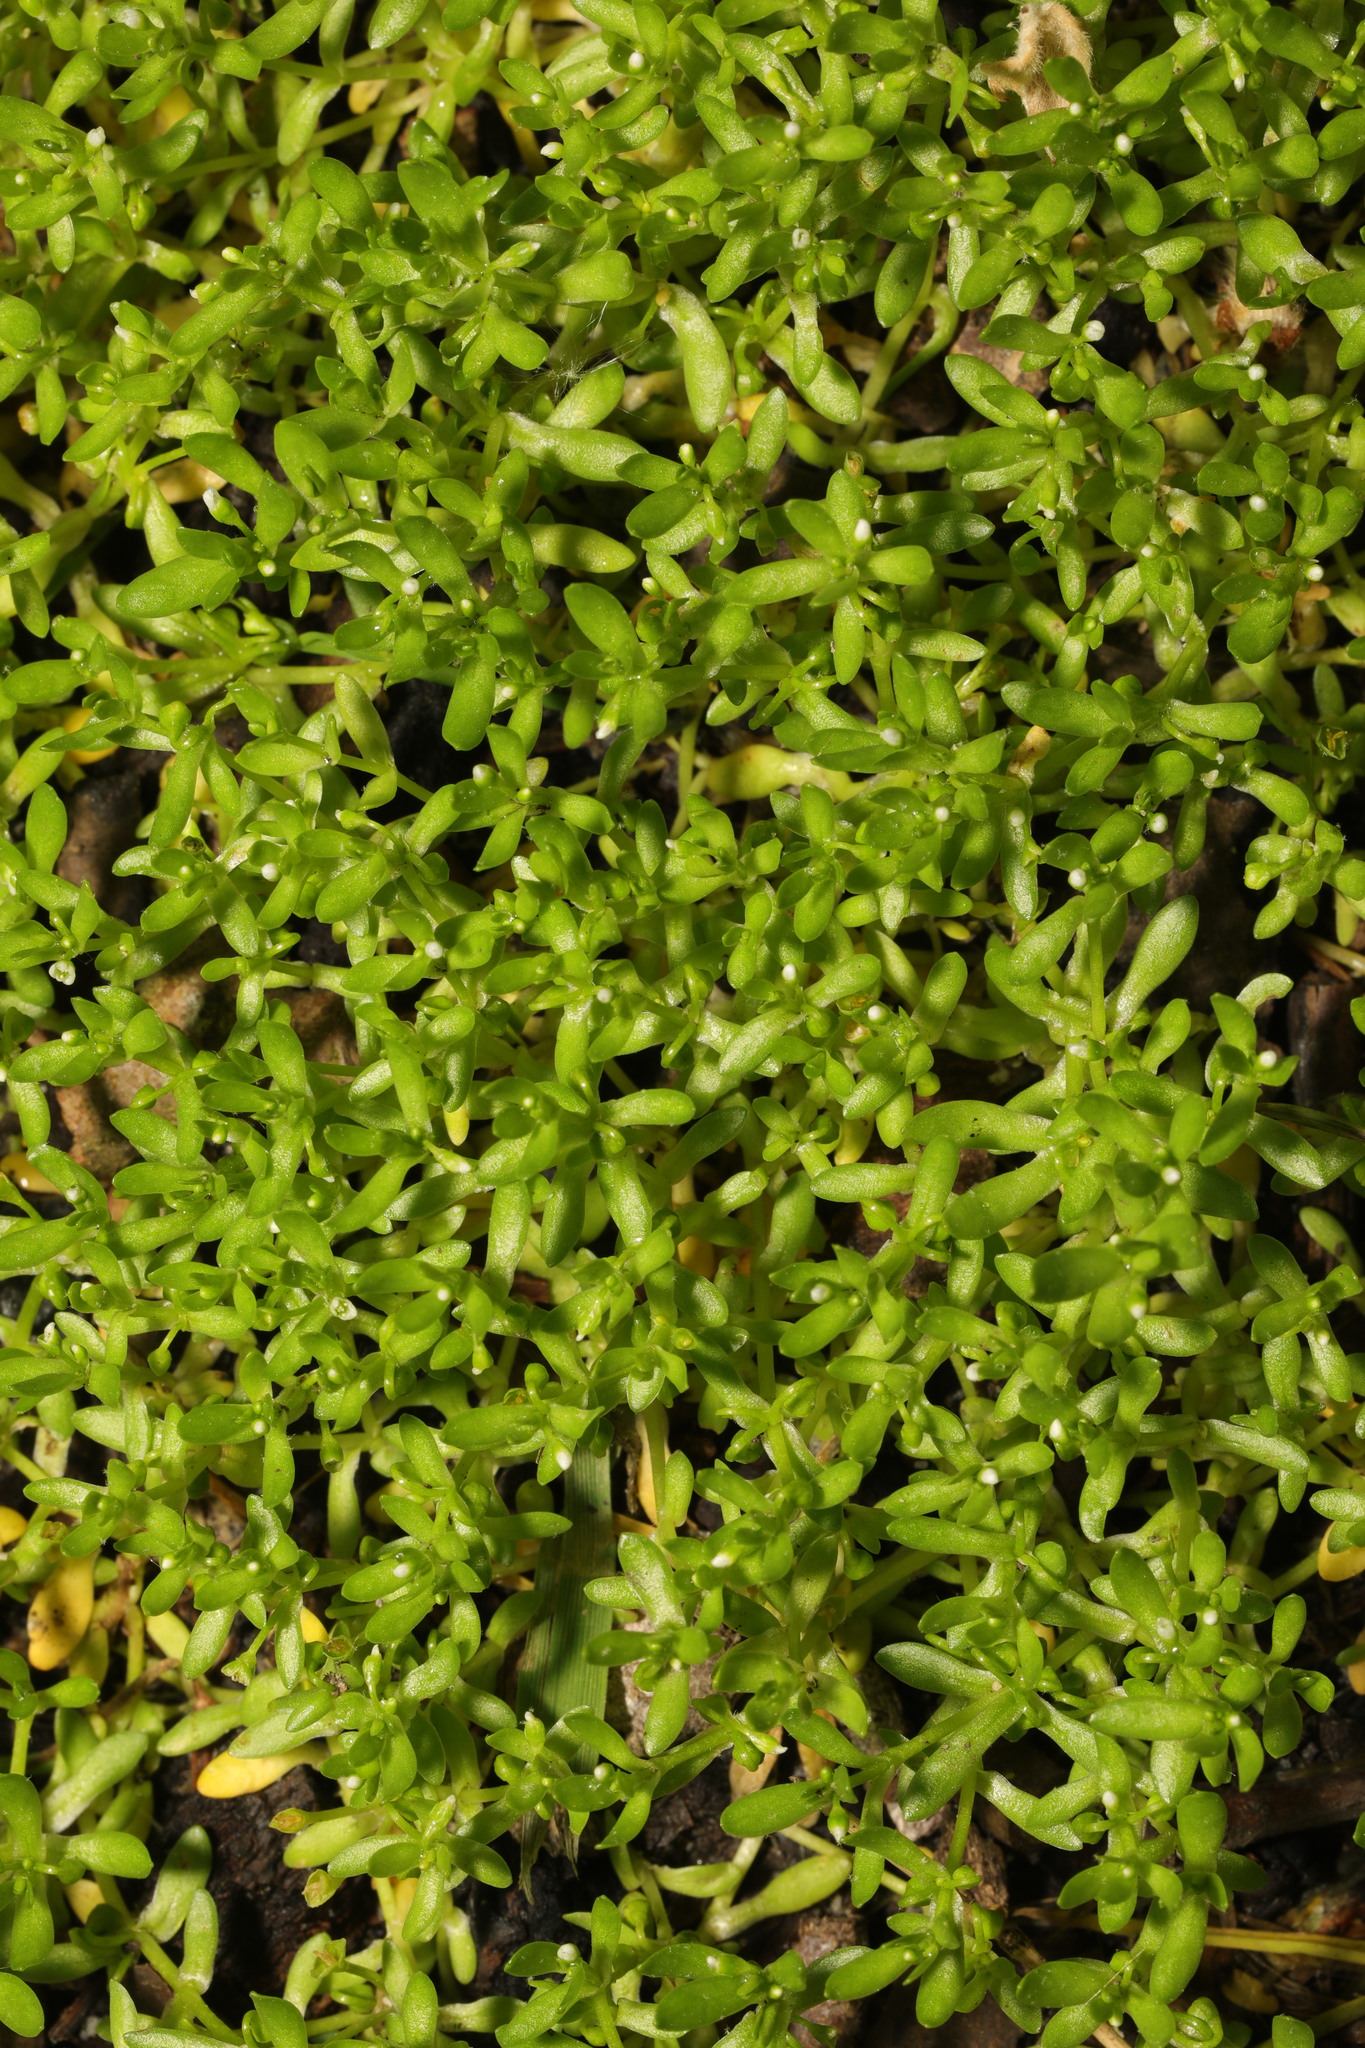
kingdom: Plantae
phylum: Tracheophyta
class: Magnoliopsida
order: Caryophyllales
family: Montiaceae
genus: Montia
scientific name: Montia fontana
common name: Blinks
